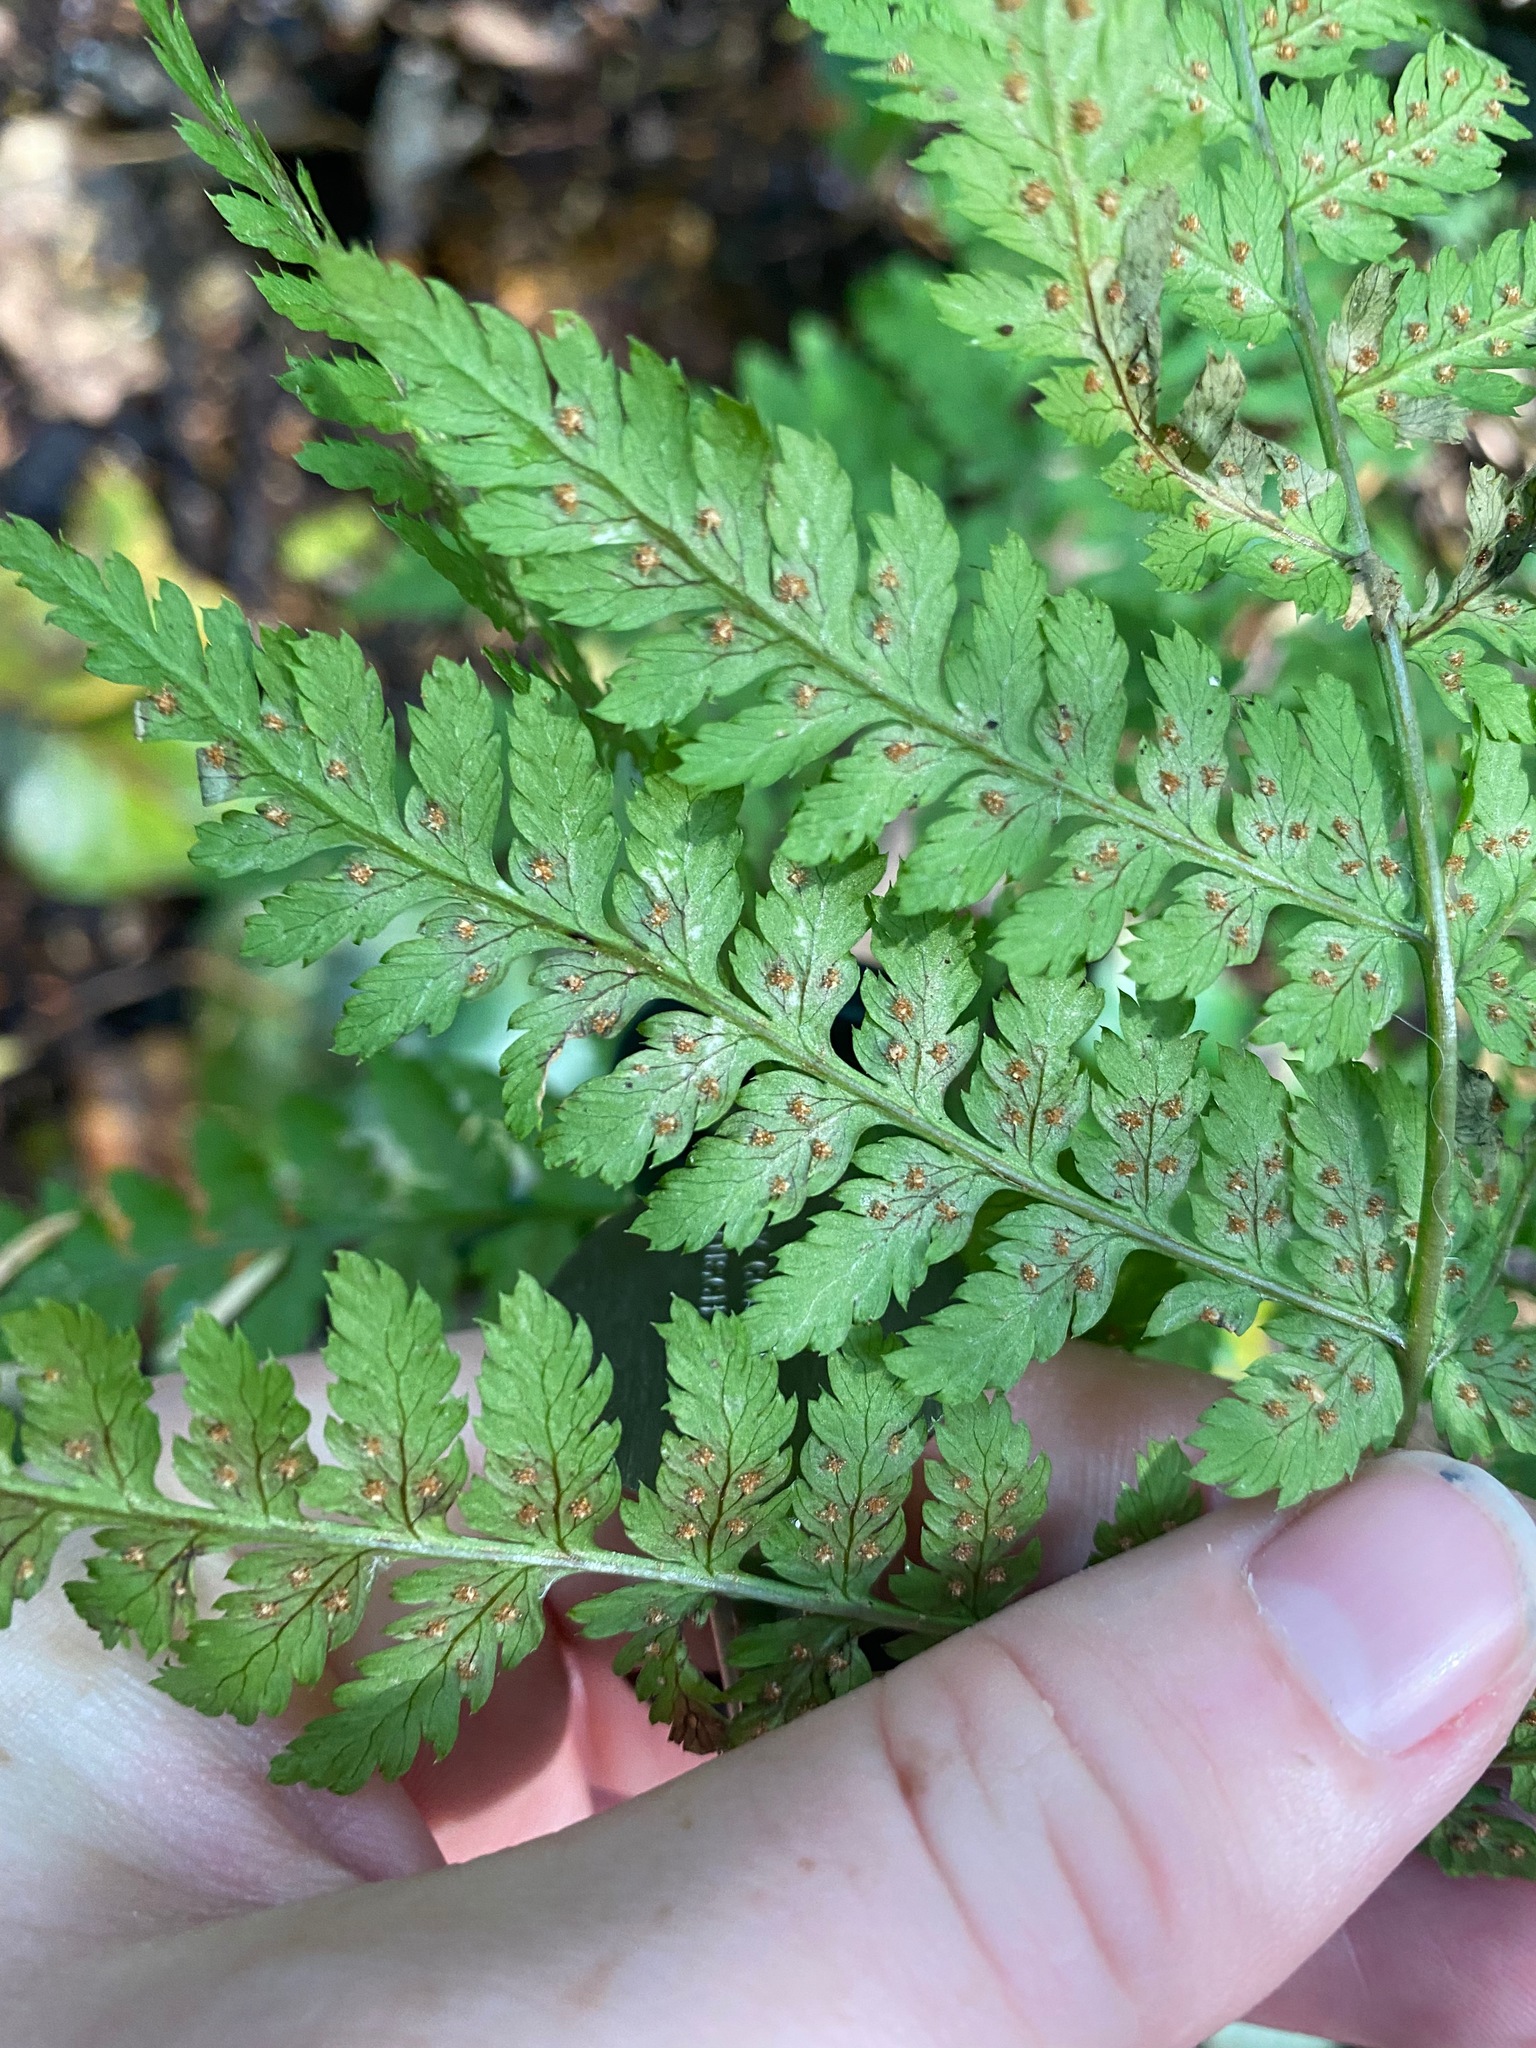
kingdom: Plantae
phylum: Tracheophyta
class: Polypodiopsida
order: Polypodiales
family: Dryopteridaceae
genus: Dryopteris
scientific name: Dryopteris expansa
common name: Northern buckler fern
